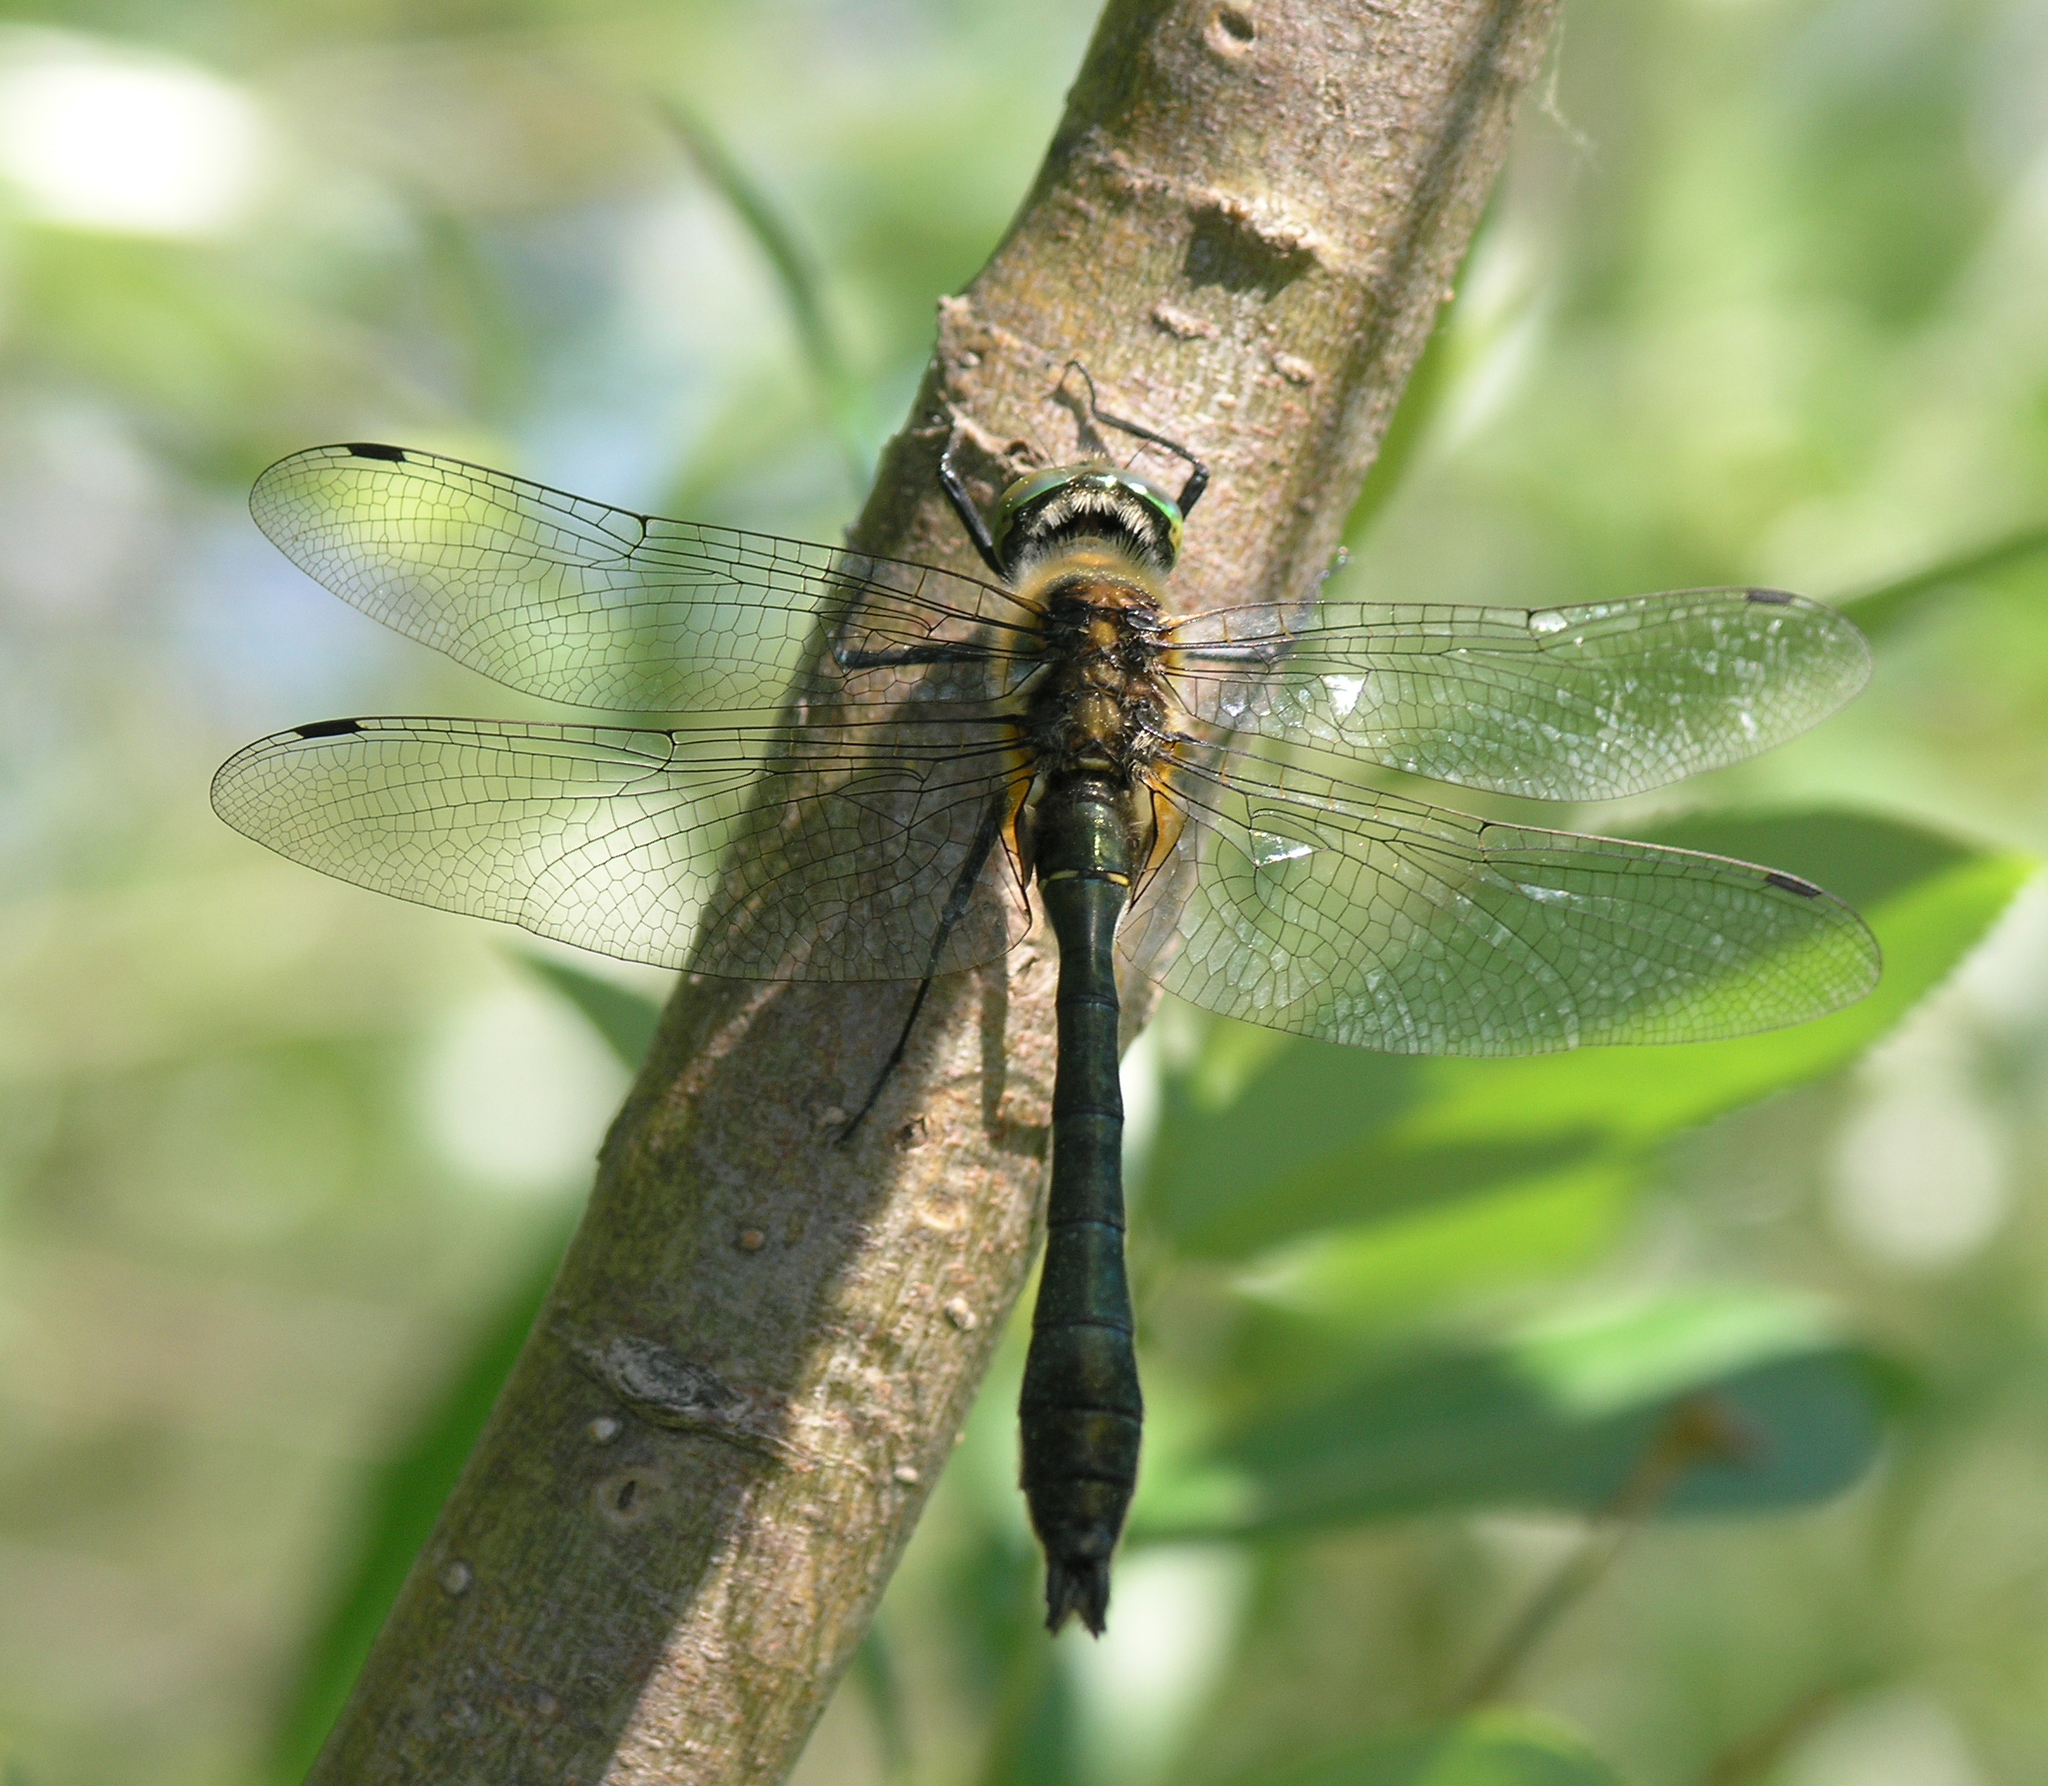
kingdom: Animalia
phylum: Arthropoda
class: Insecta
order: Odonata
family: Corduliidae
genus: Cordulia
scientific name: Cordulia aenea
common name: Downy emerald
